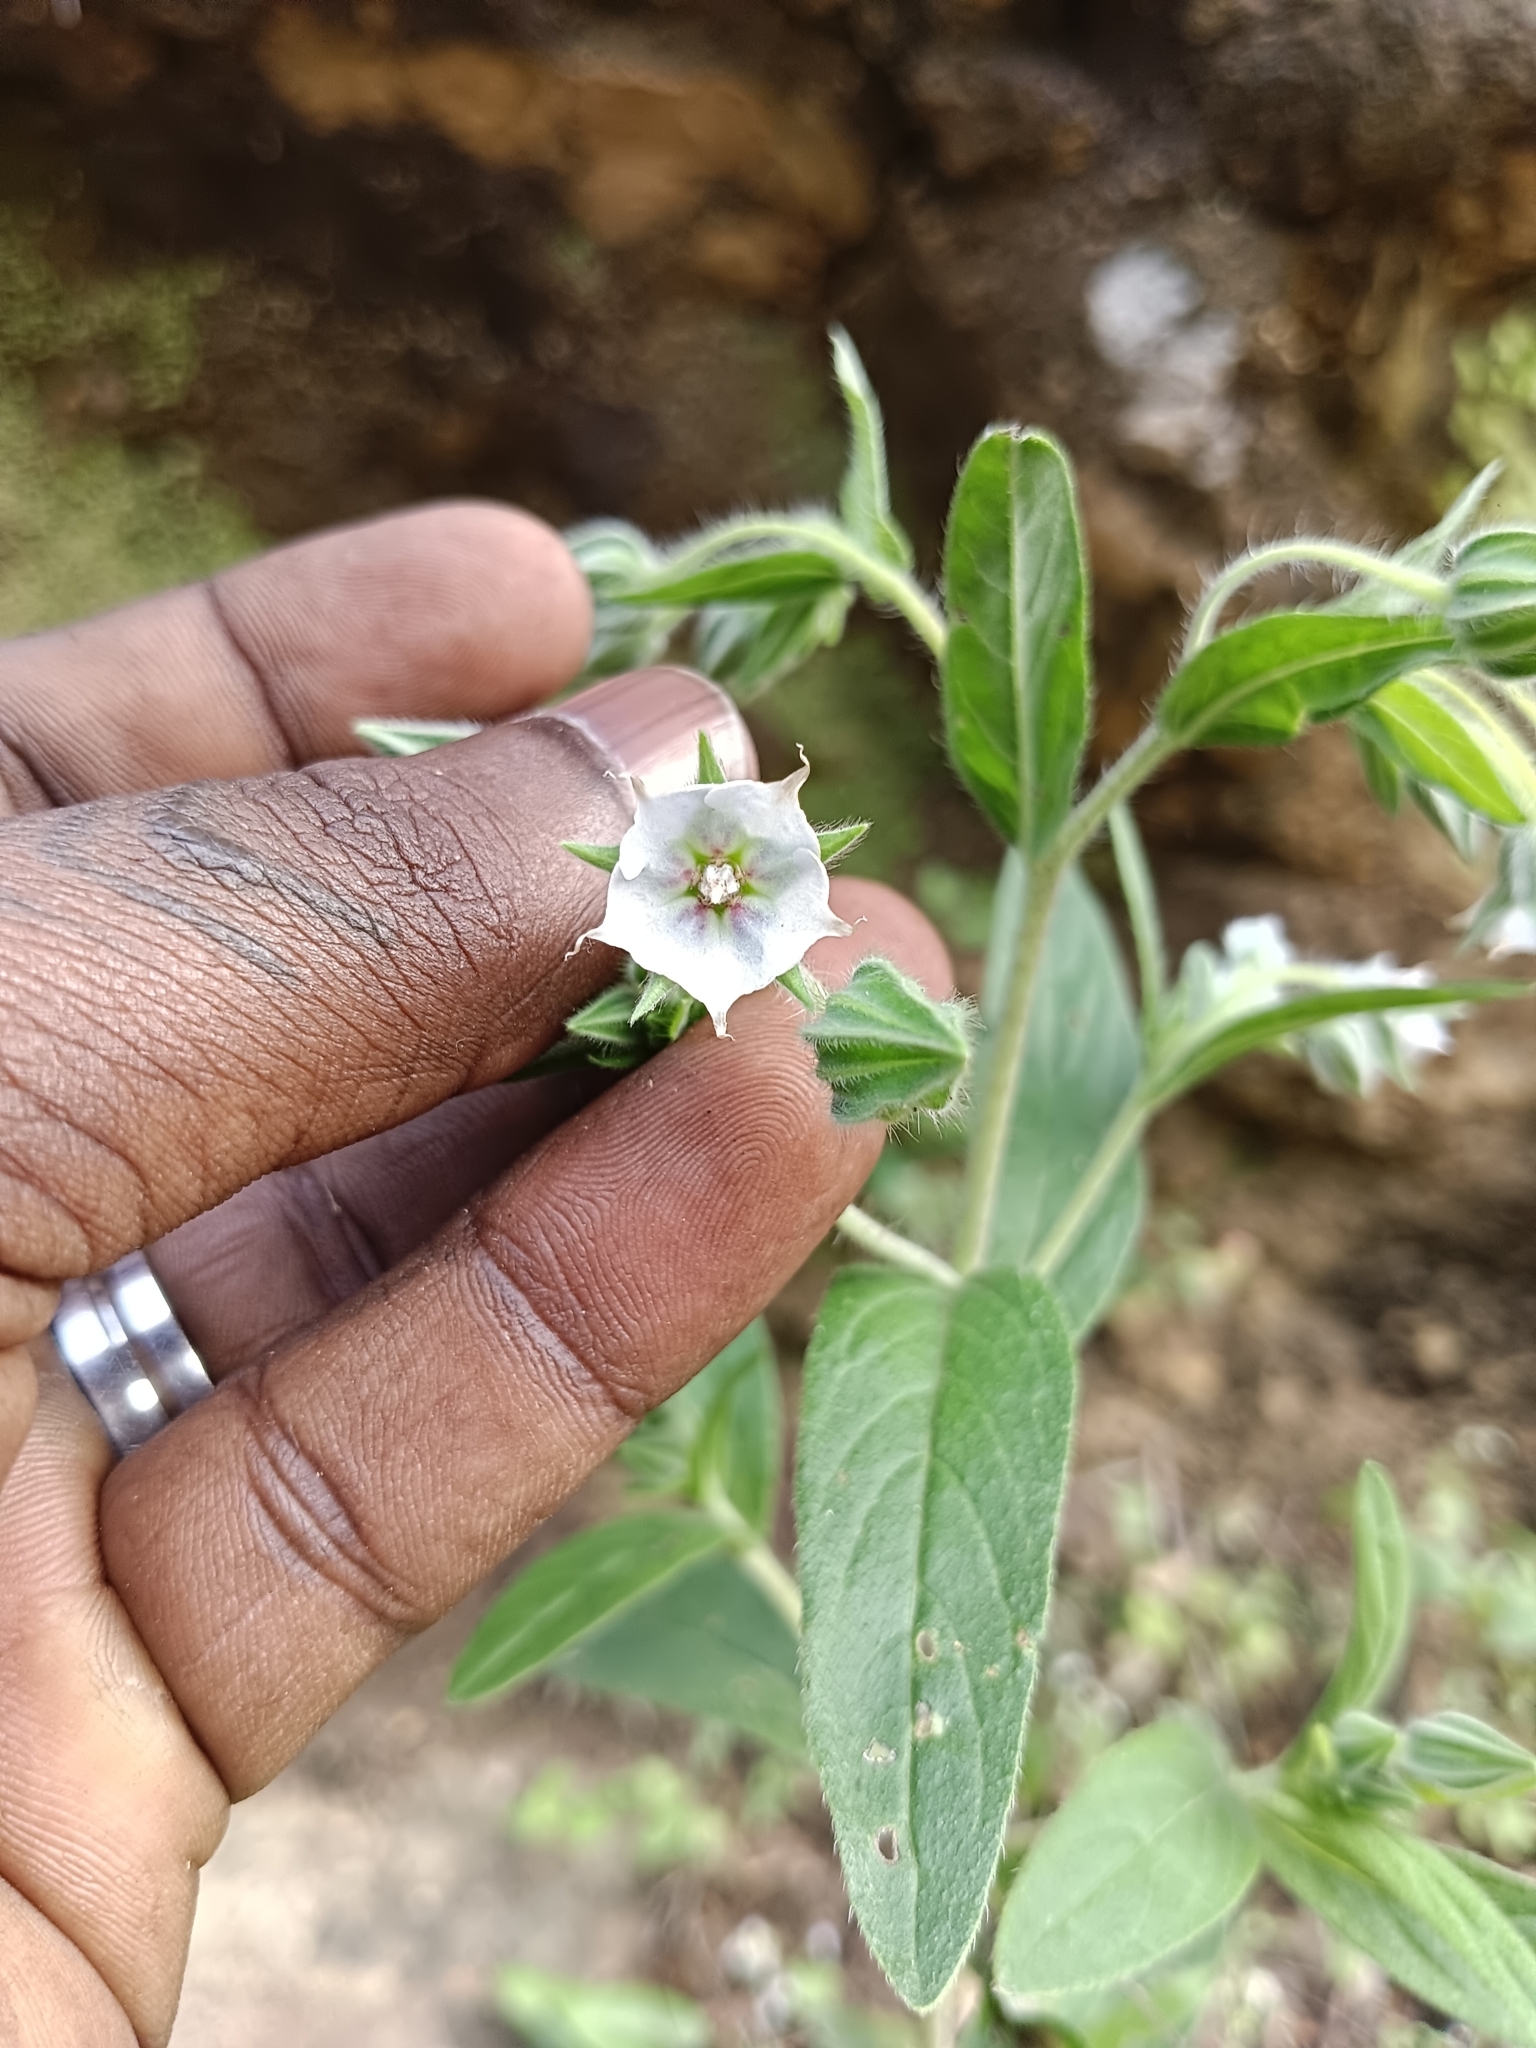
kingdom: Plantae
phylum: Tracheophyta
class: Magnoliopsida
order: Boraginales
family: Boraginaceae
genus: Trichodesma
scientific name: Trichodesma indicum
